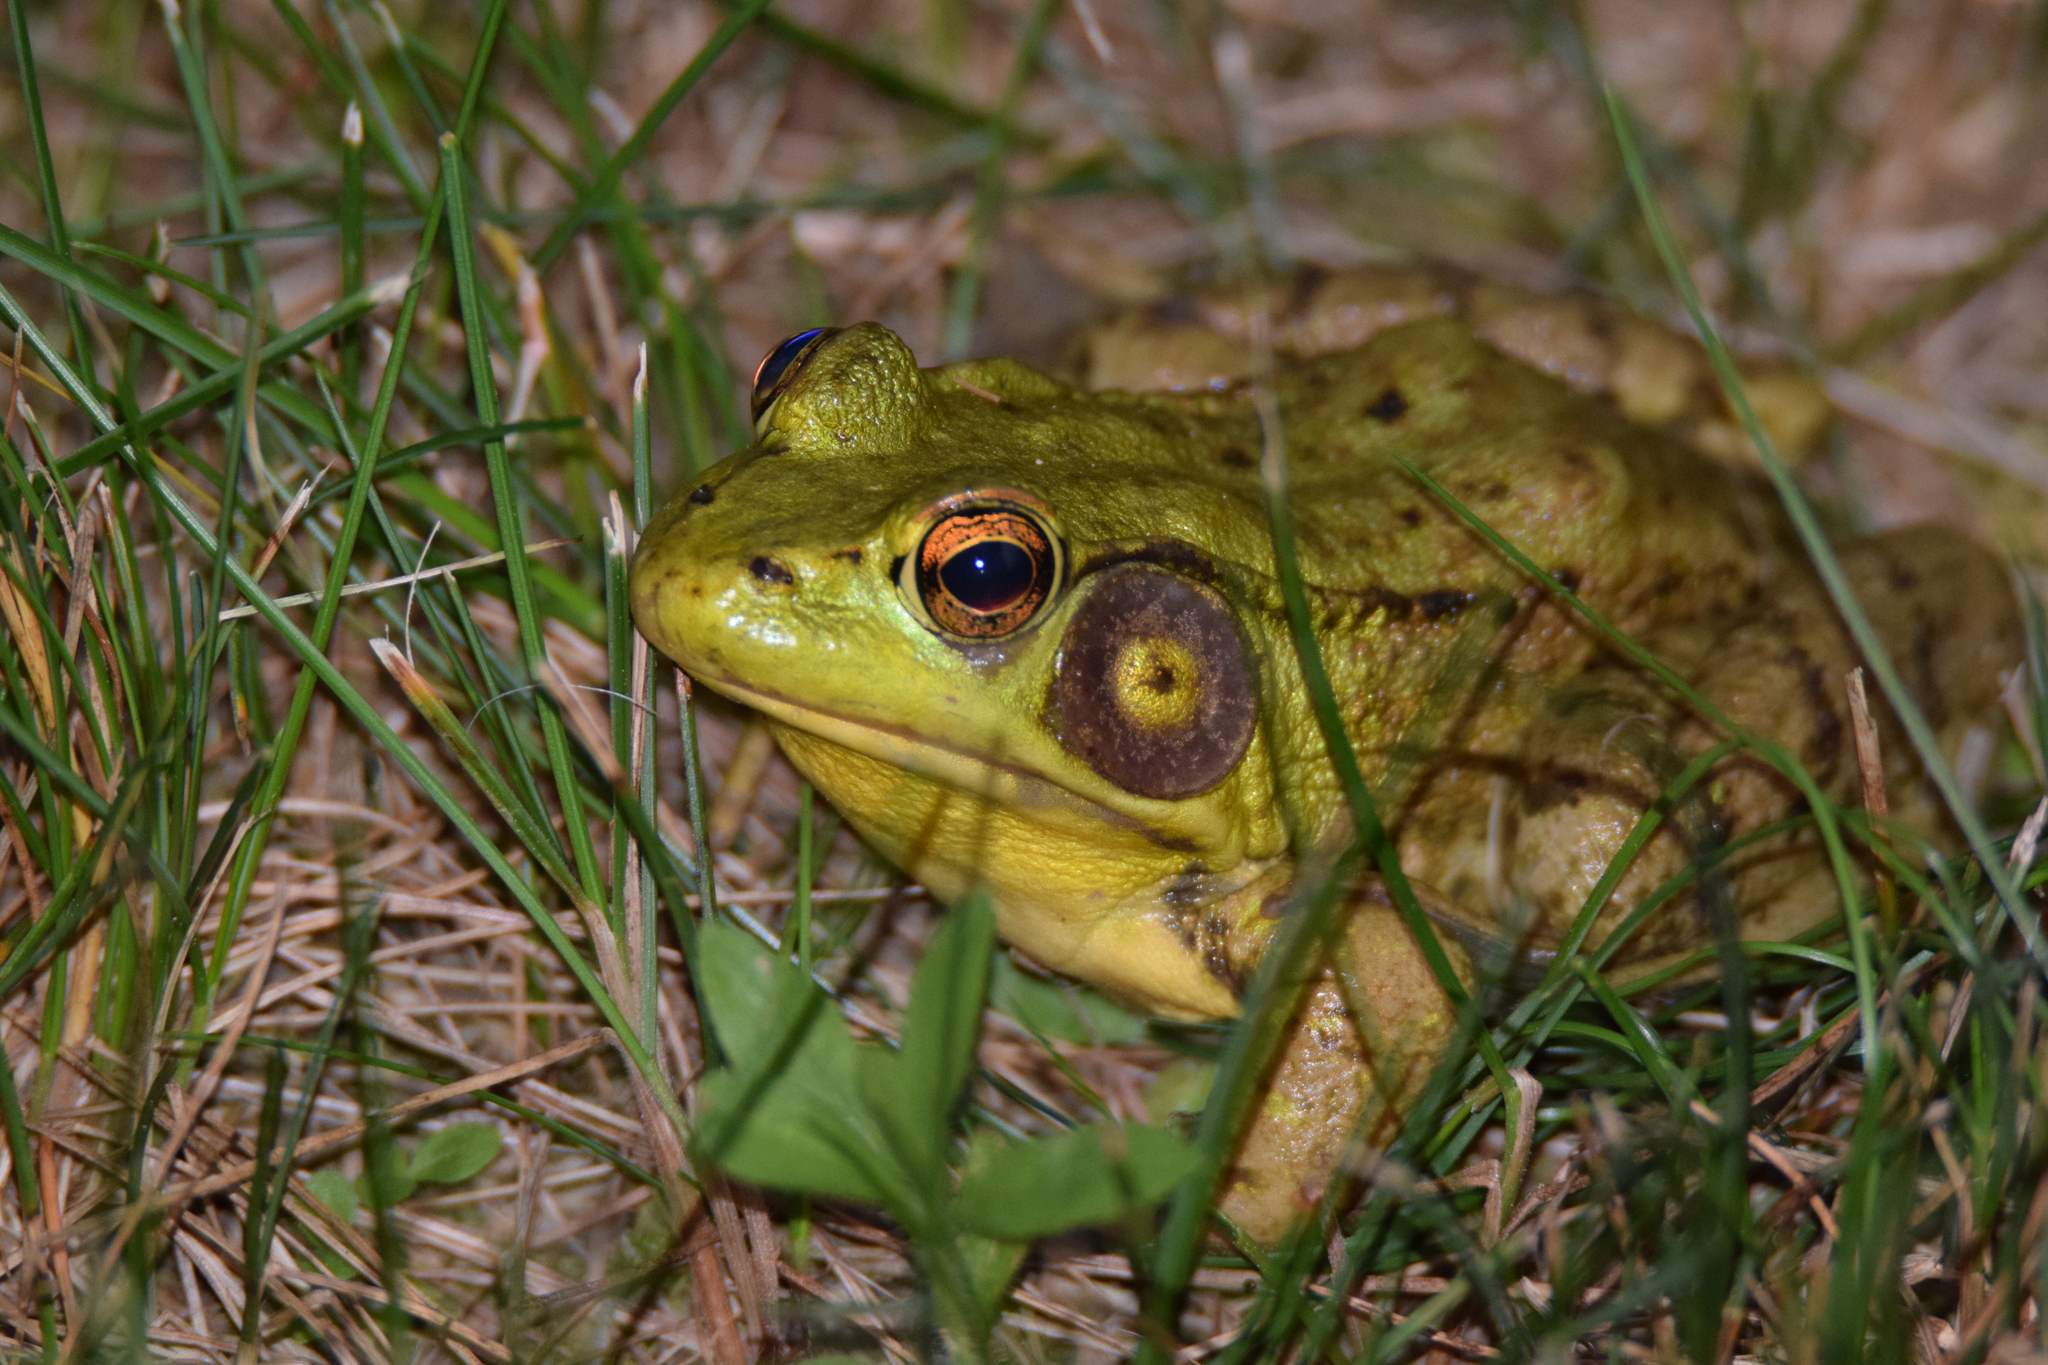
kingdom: Animalia
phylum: Chordata
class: Amphibia
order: Anura
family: Ranidae
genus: Lithobates
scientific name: Lithobates clamitans
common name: Green frog
